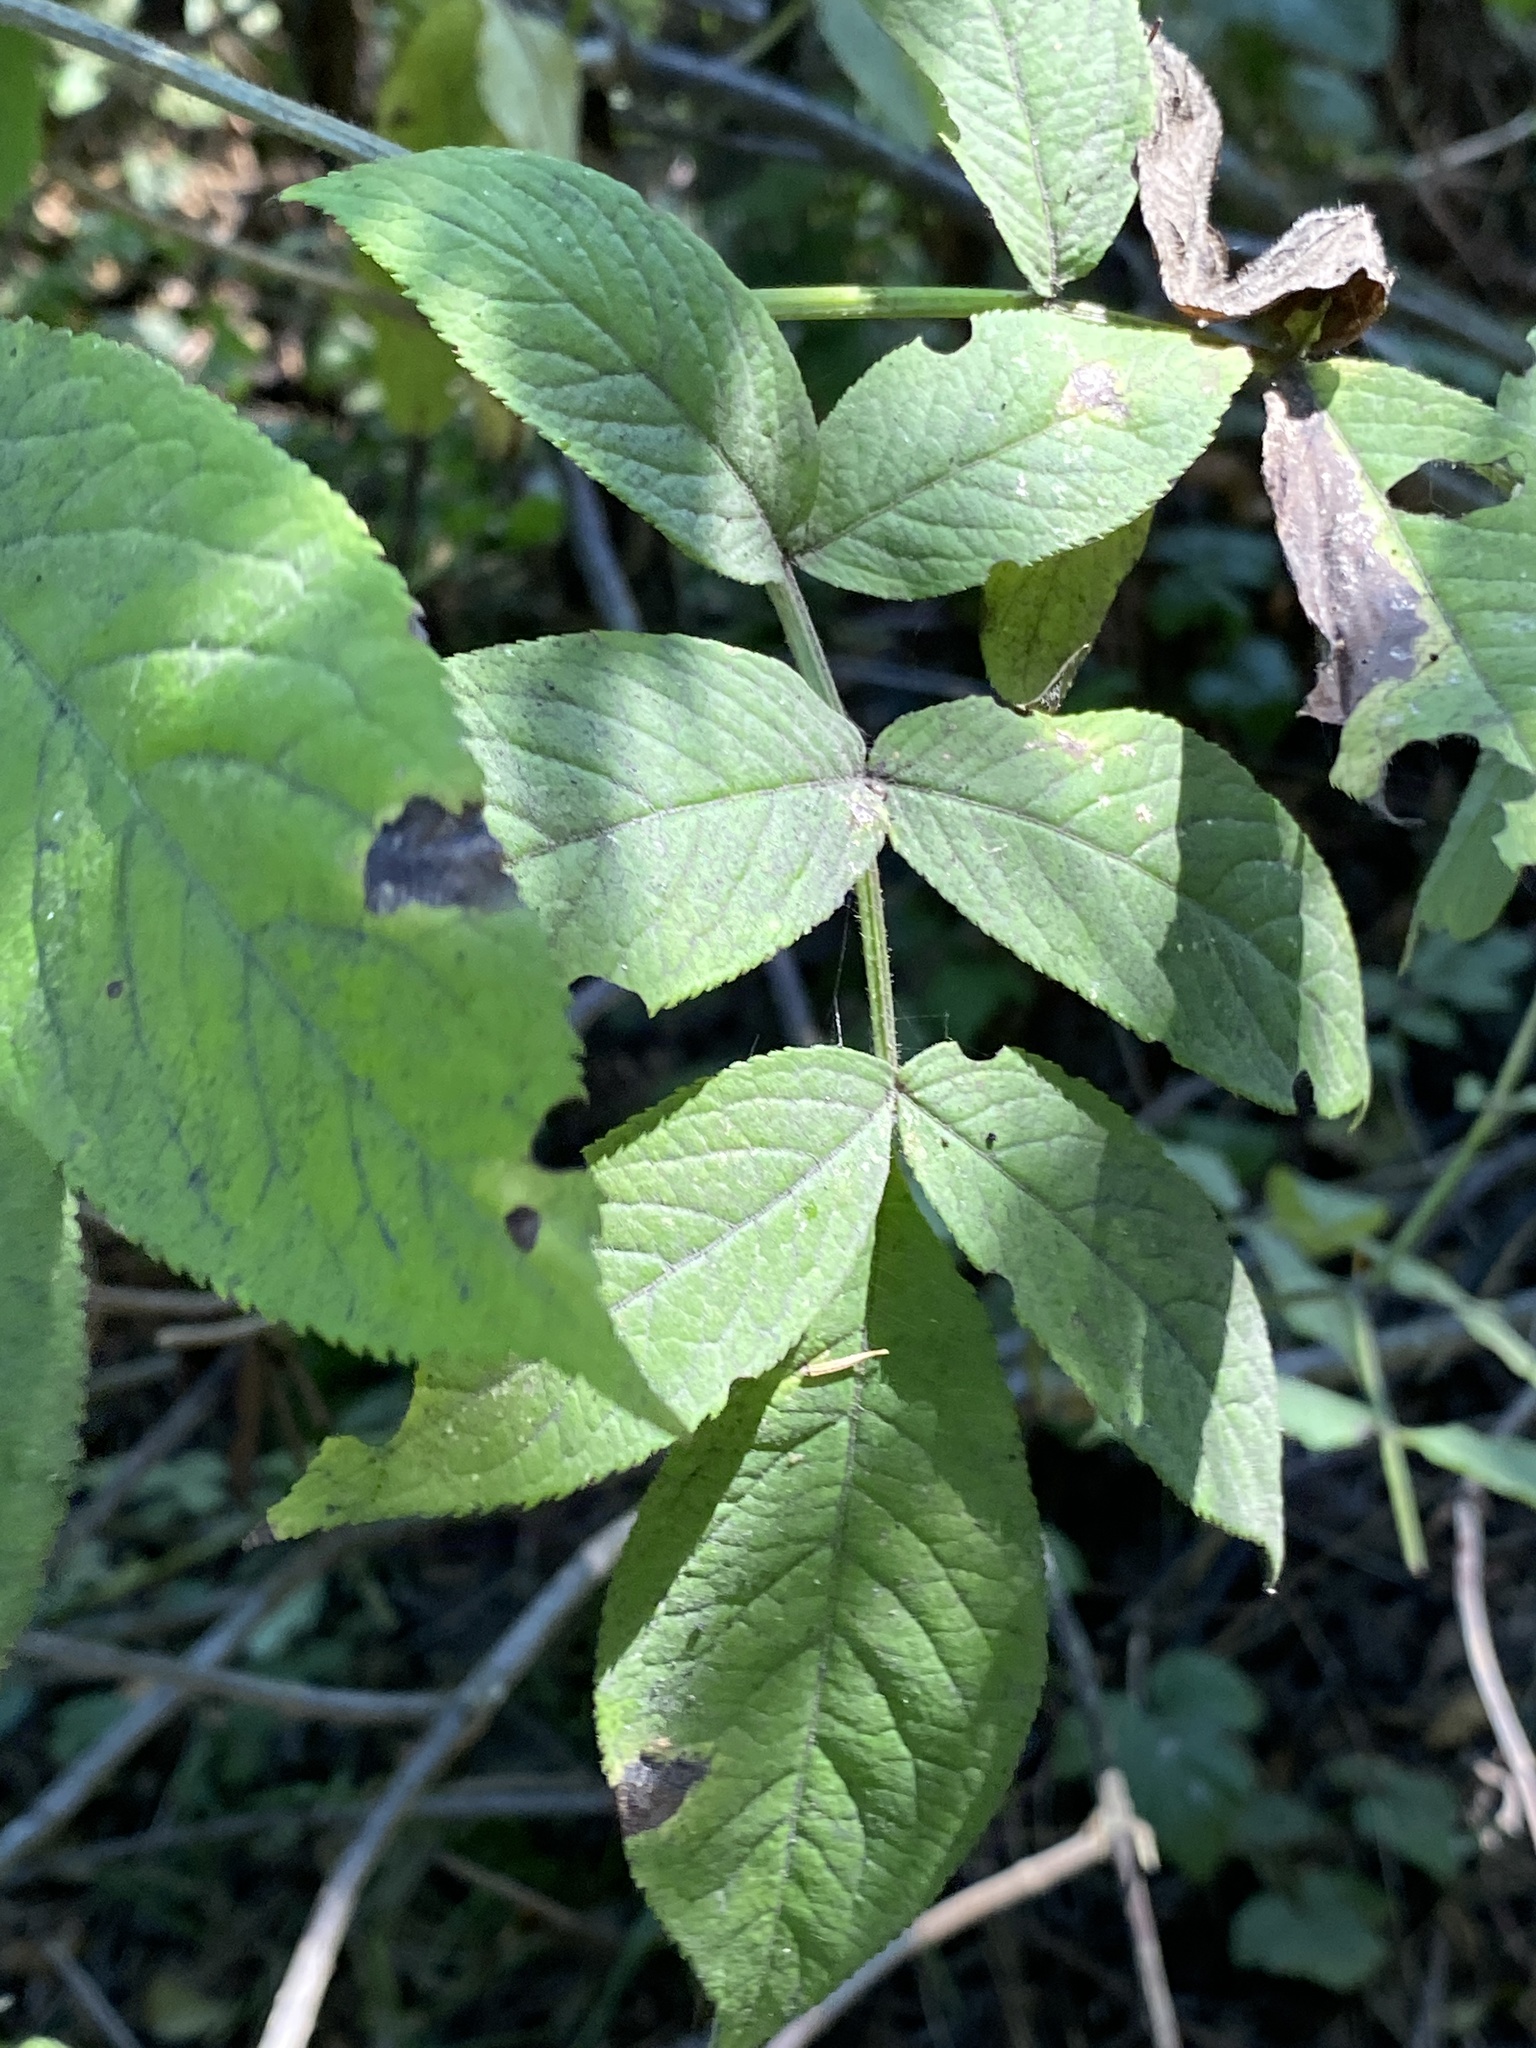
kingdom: Plantae
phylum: Tracheophyta
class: Magnoliopsida
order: Dipsacales
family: Viburnaceae
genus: Sambucus
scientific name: Sambucus racemosa
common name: Red-berried elder
